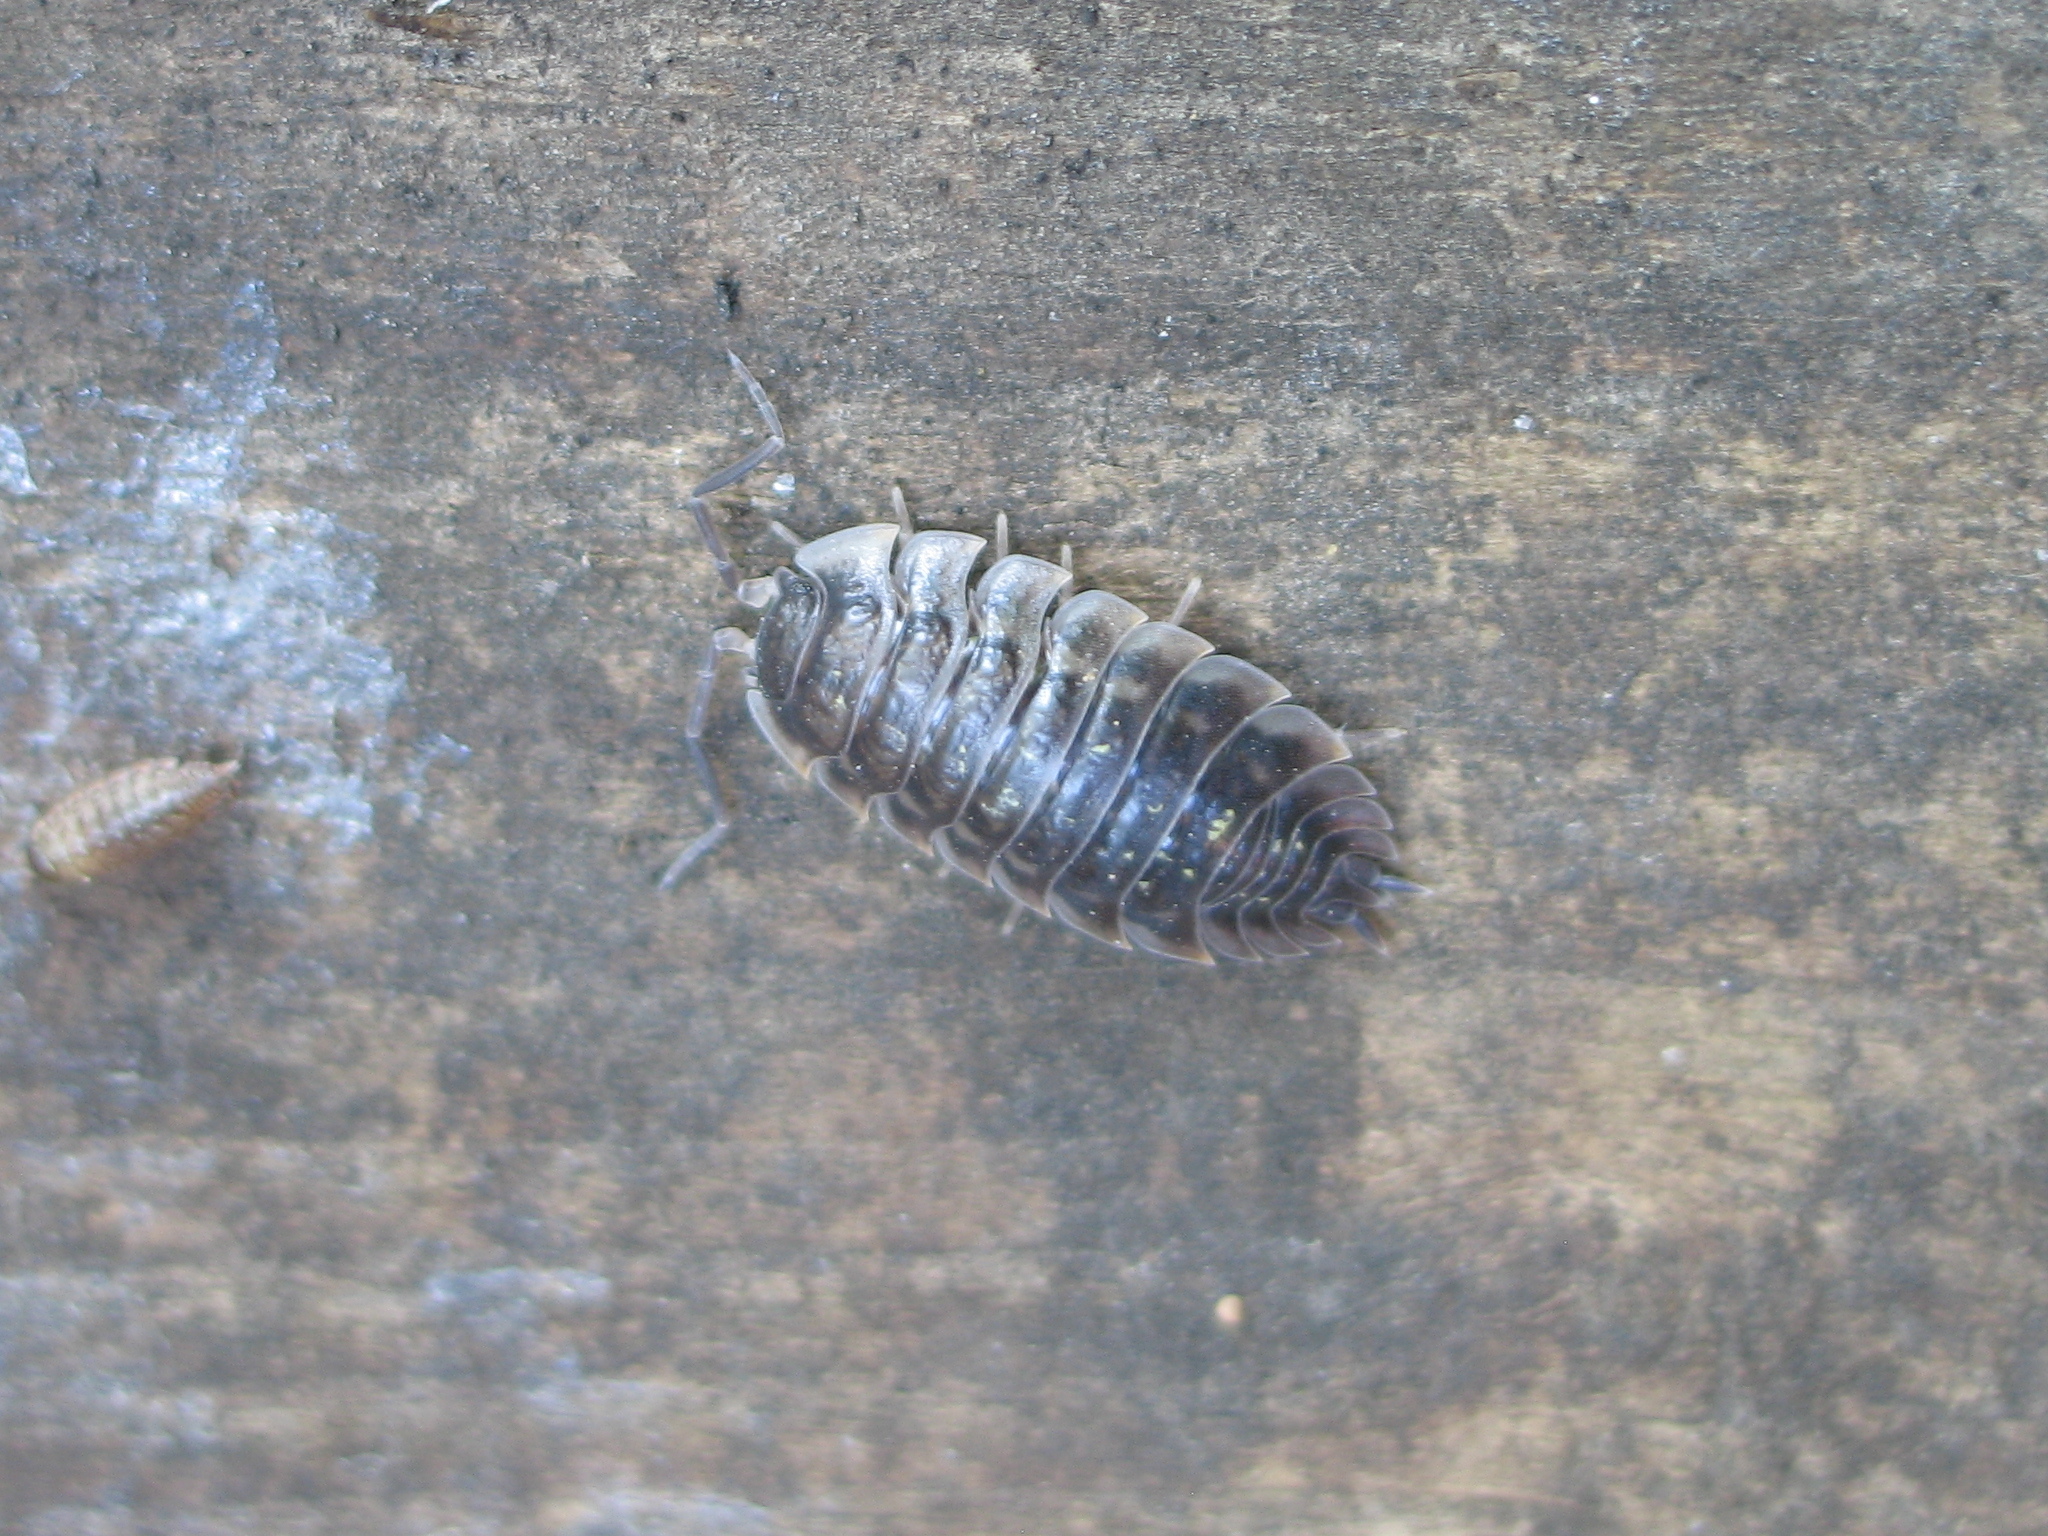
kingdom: Animalia
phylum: Arthropoda
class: Malacostraca
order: Isopoda
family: Oniscidae
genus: Oniscus
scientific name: Oniscus asellus
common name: Common shiny woodlouse
